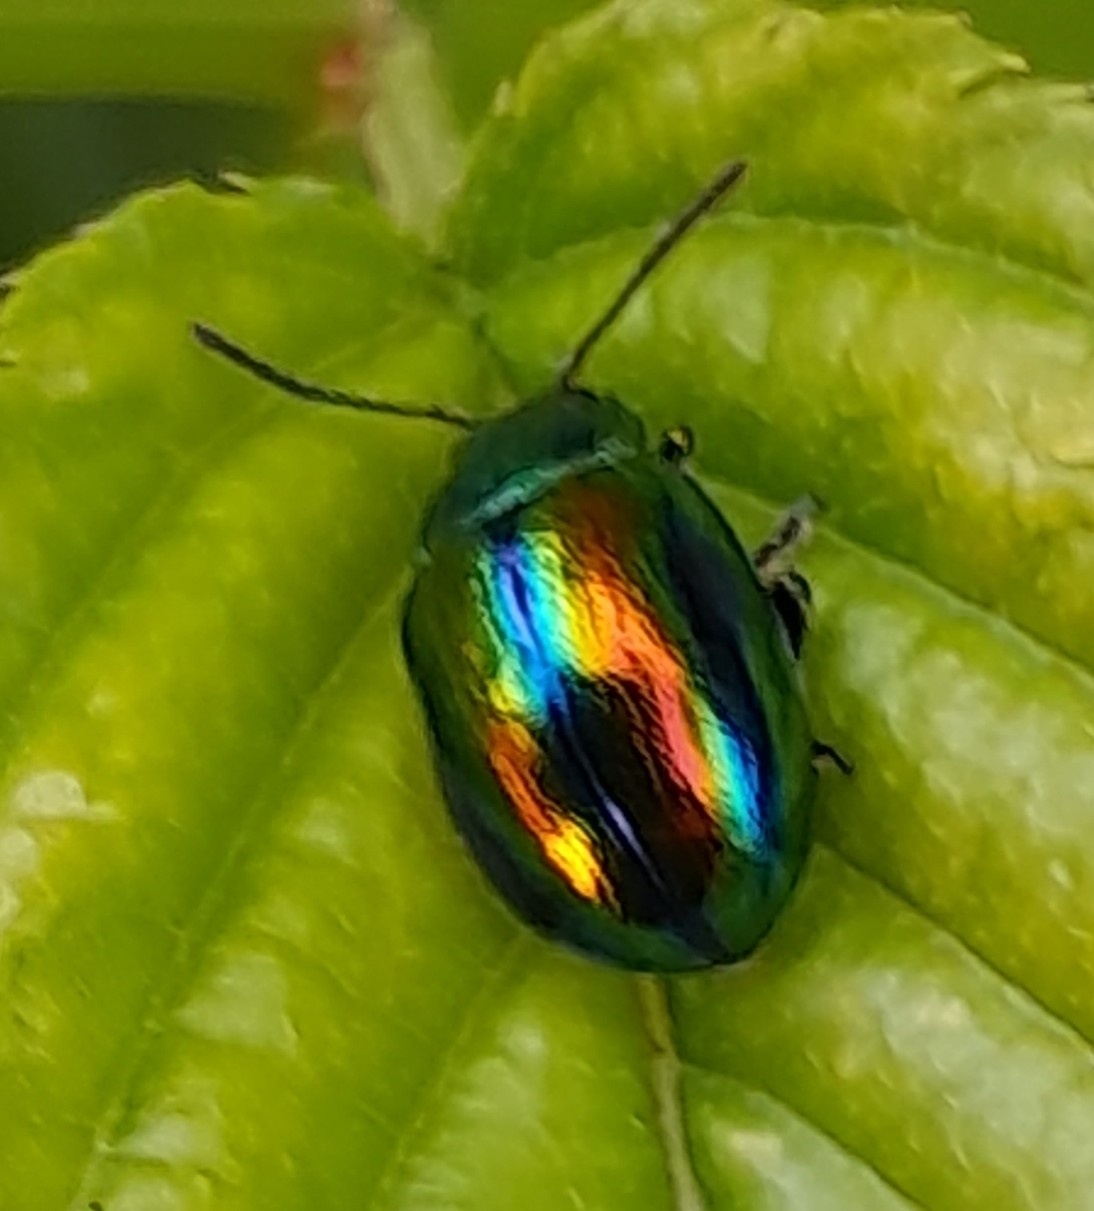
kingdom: Animalia
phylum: Arthropoda
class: Insecta
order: Coleoptera
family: Chrysomelidae
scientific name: Chrysomelidae
